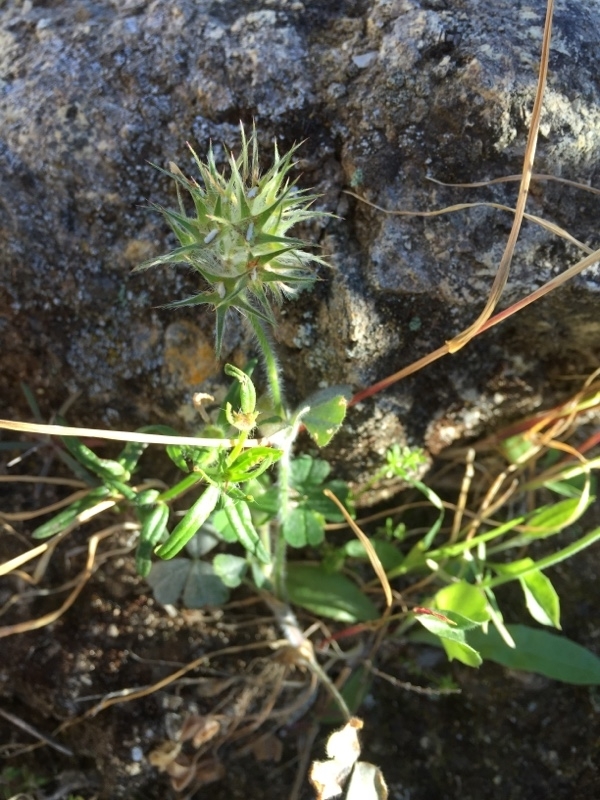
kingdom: Plantae
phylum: Tracheophyta
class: Magnoliopsida
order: Fabales
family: Fabaceae
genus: Trifolium
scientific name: Trifolium stellatum
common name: Starry clover
